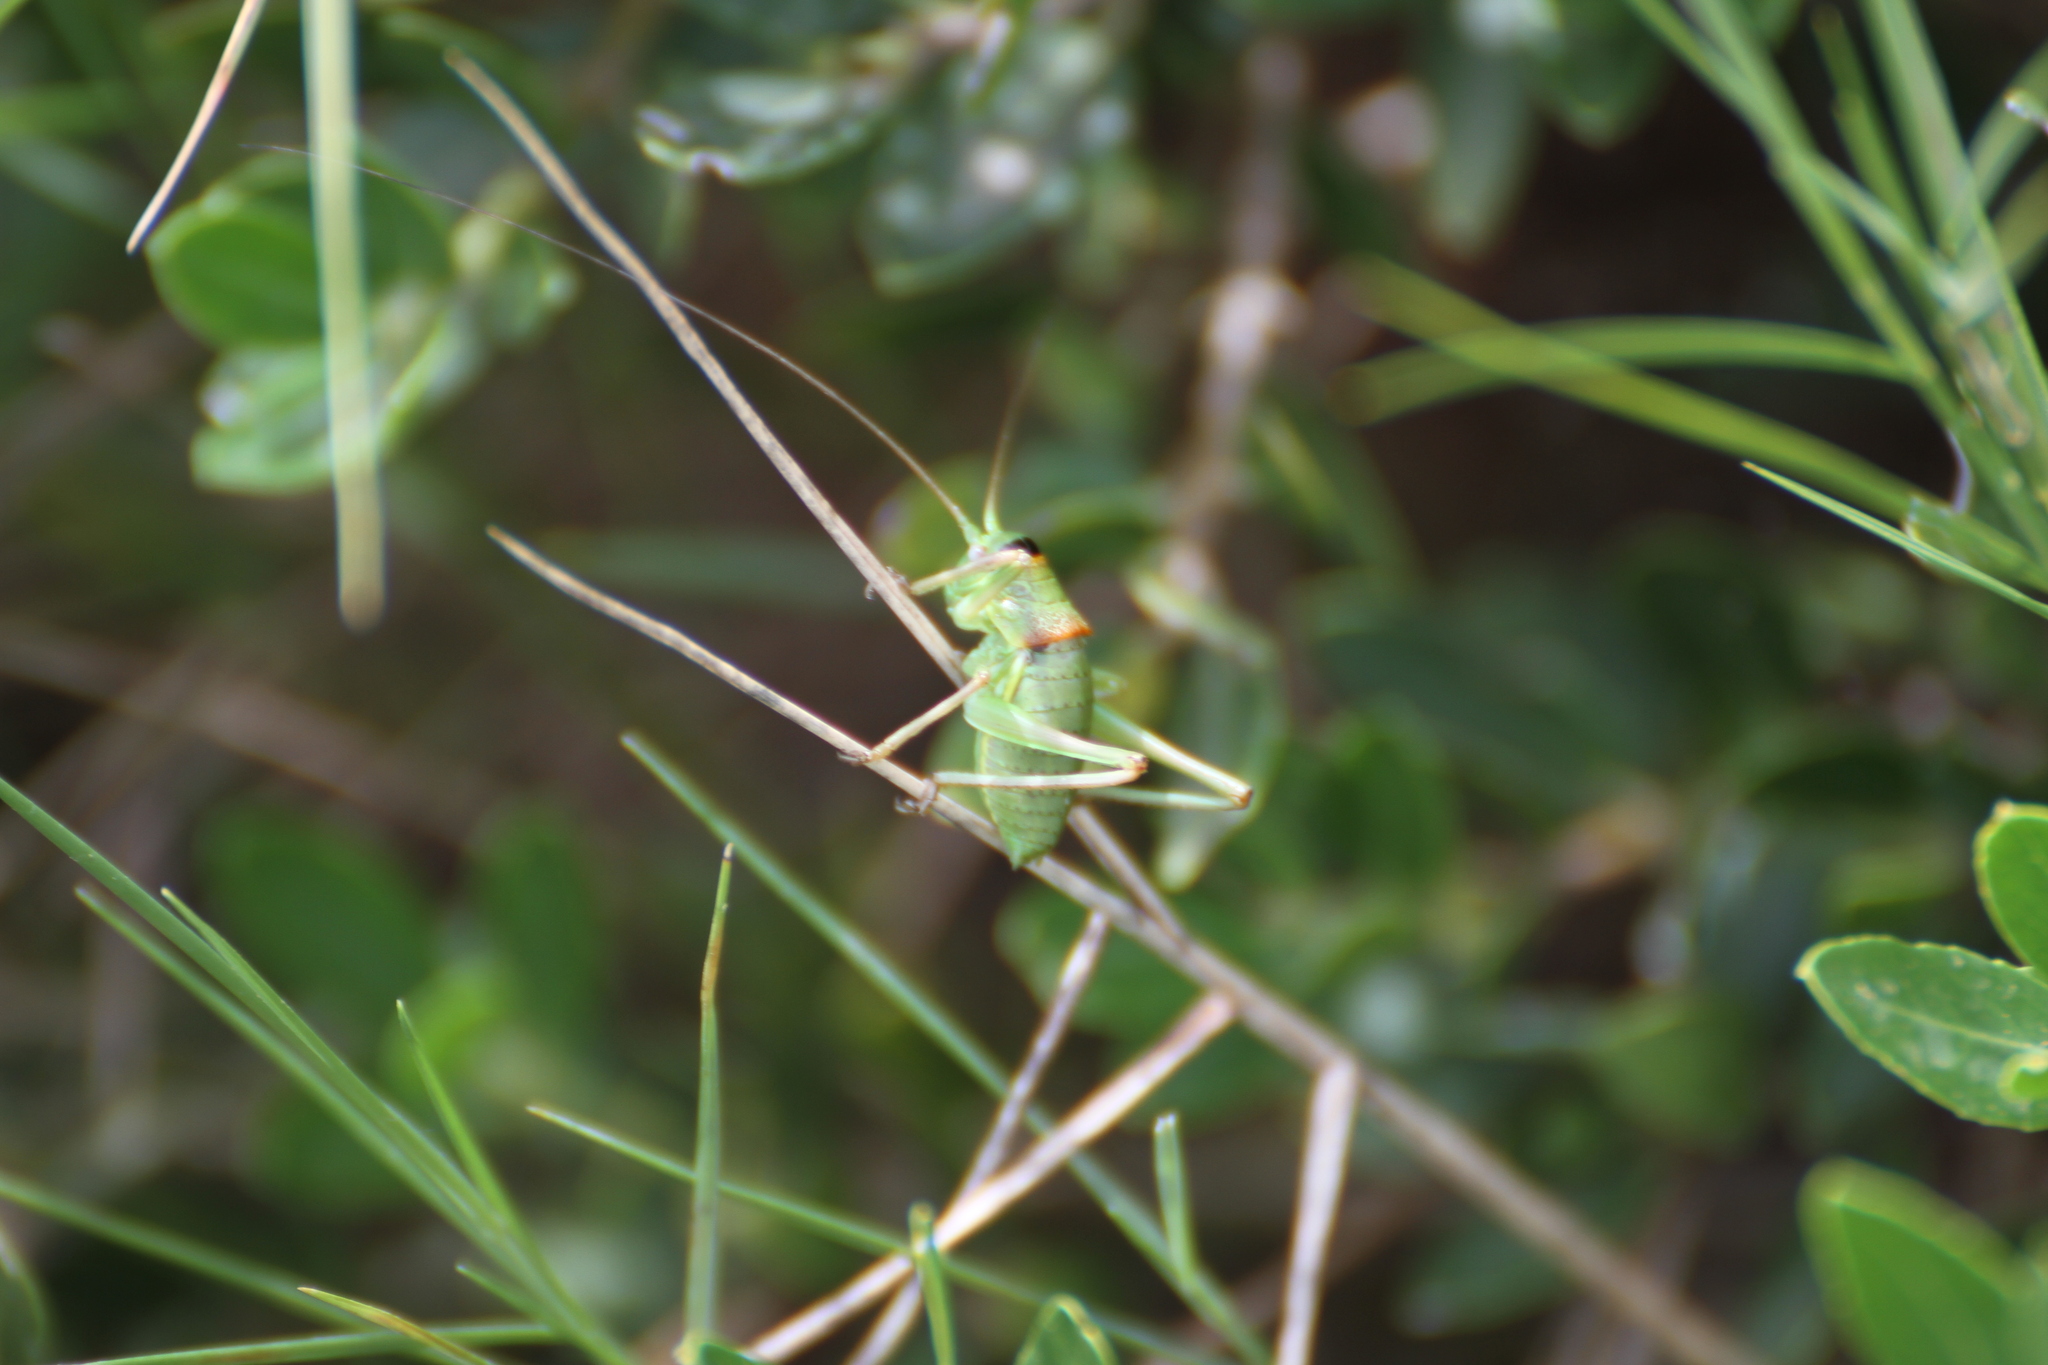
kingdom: Animalia
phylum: Arthropoda
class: Insecta
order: Orthoptera
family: Tettigoniidae
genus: Ephippiger
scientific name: Ephippiger diurnus
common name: Western saddle bush-cricket
